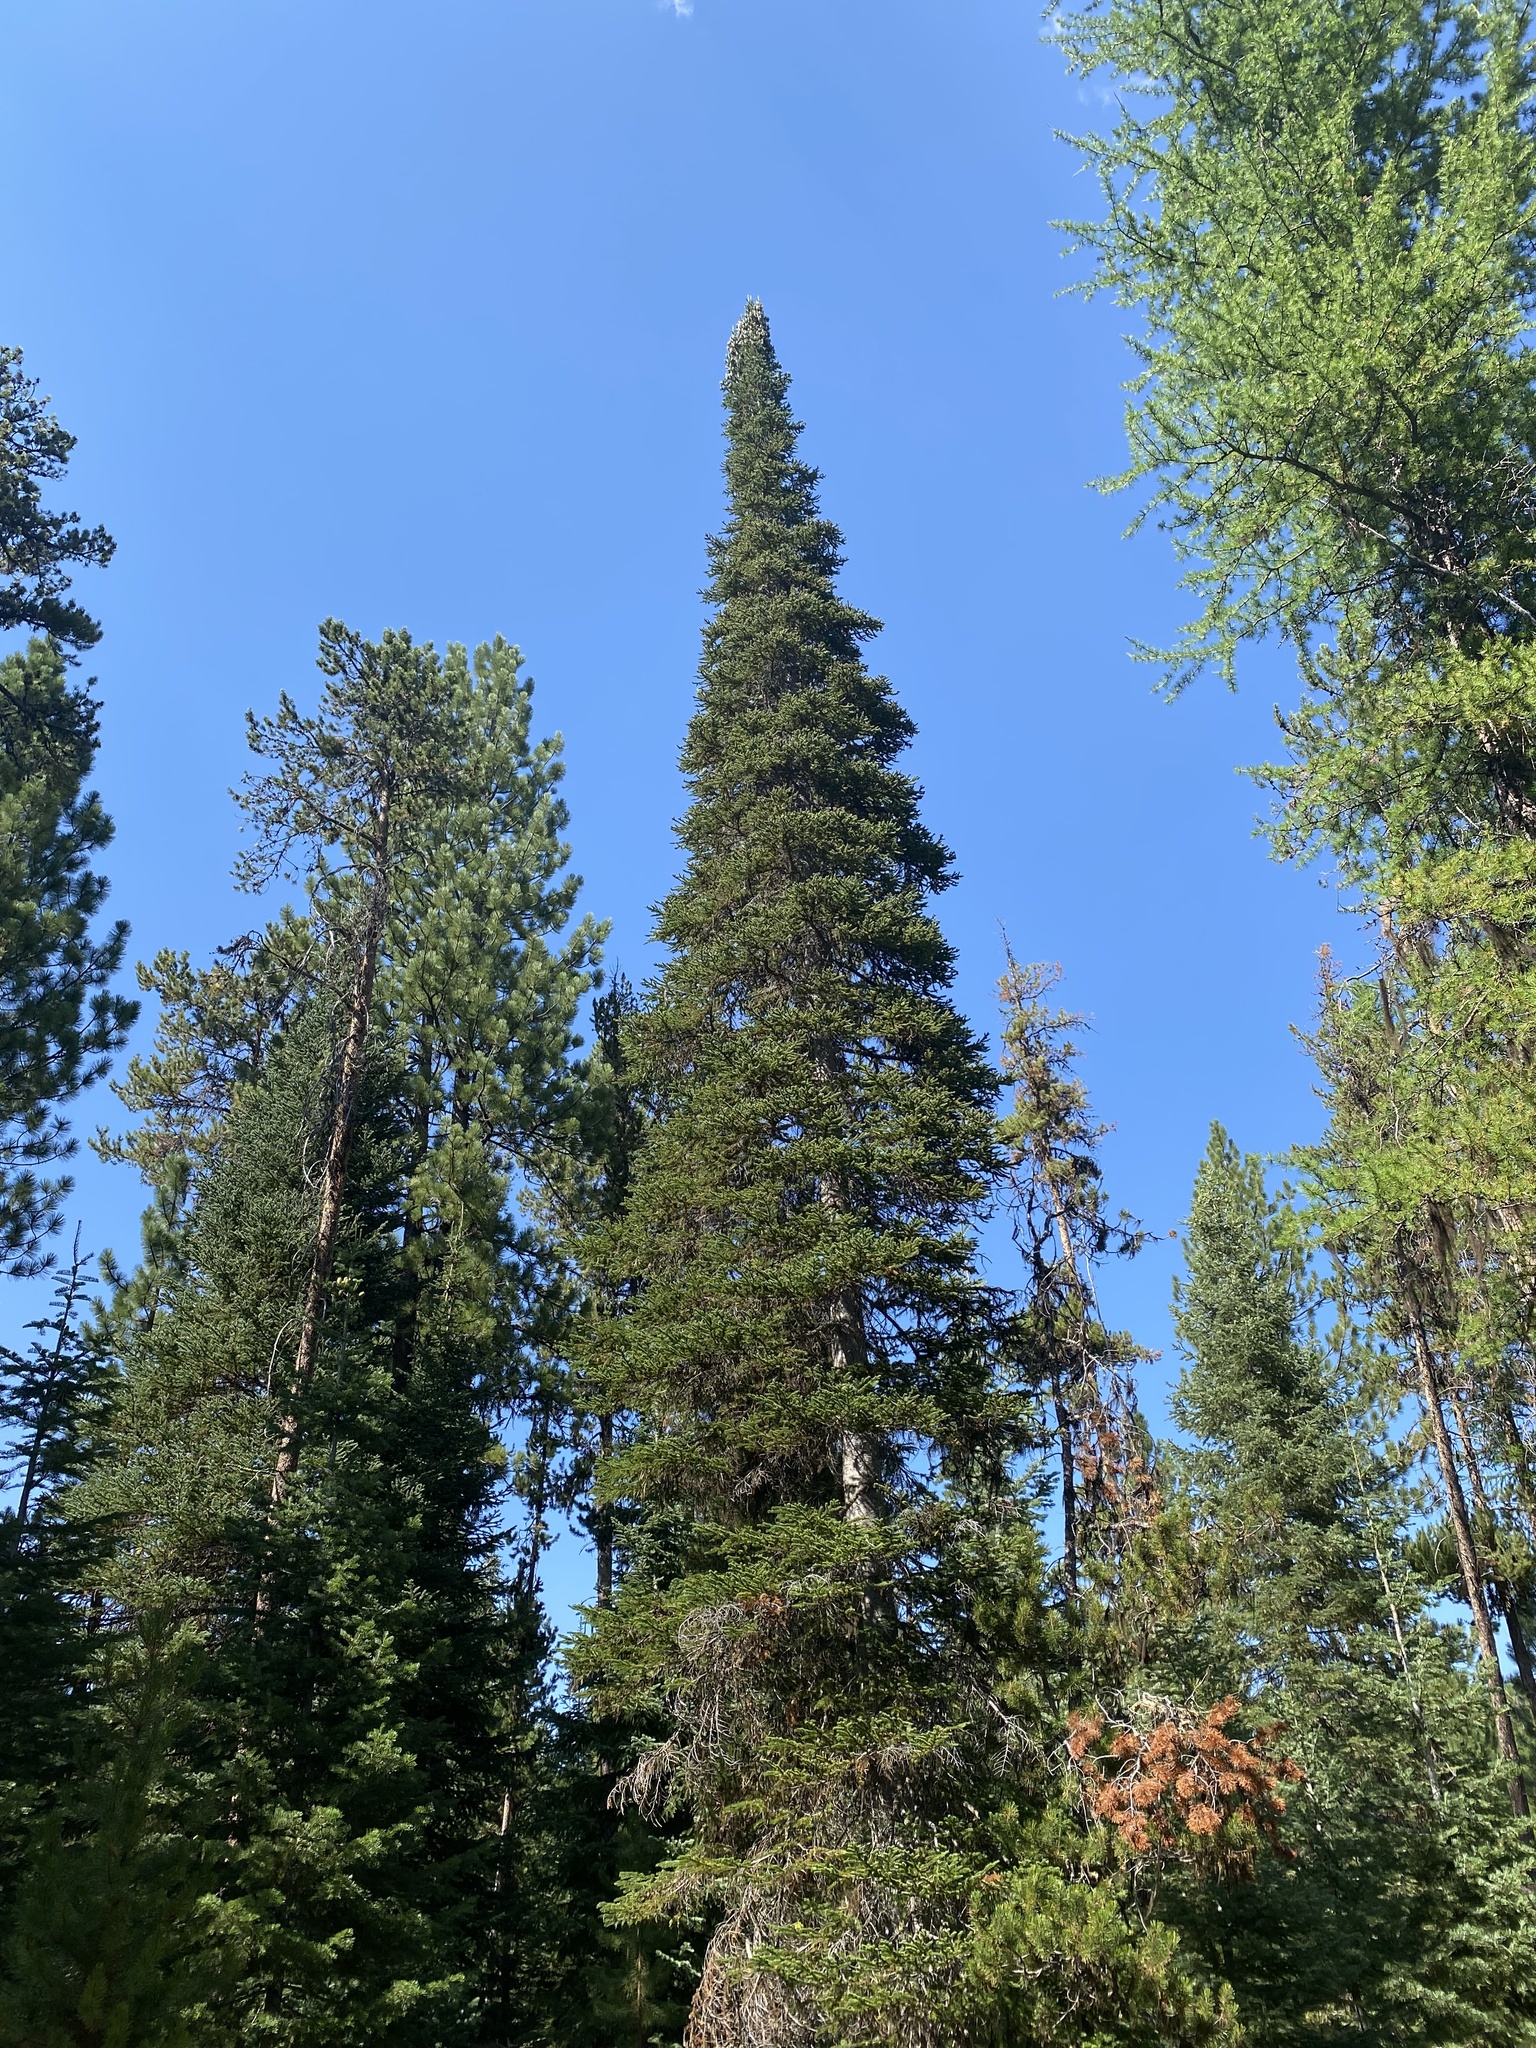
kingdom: Plantae
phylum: Tracheophyta
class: Pinopsida
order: Pinales
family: Pinaceae
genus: Abies
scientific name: Abies lasiocarpa
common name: Subalpine fir
